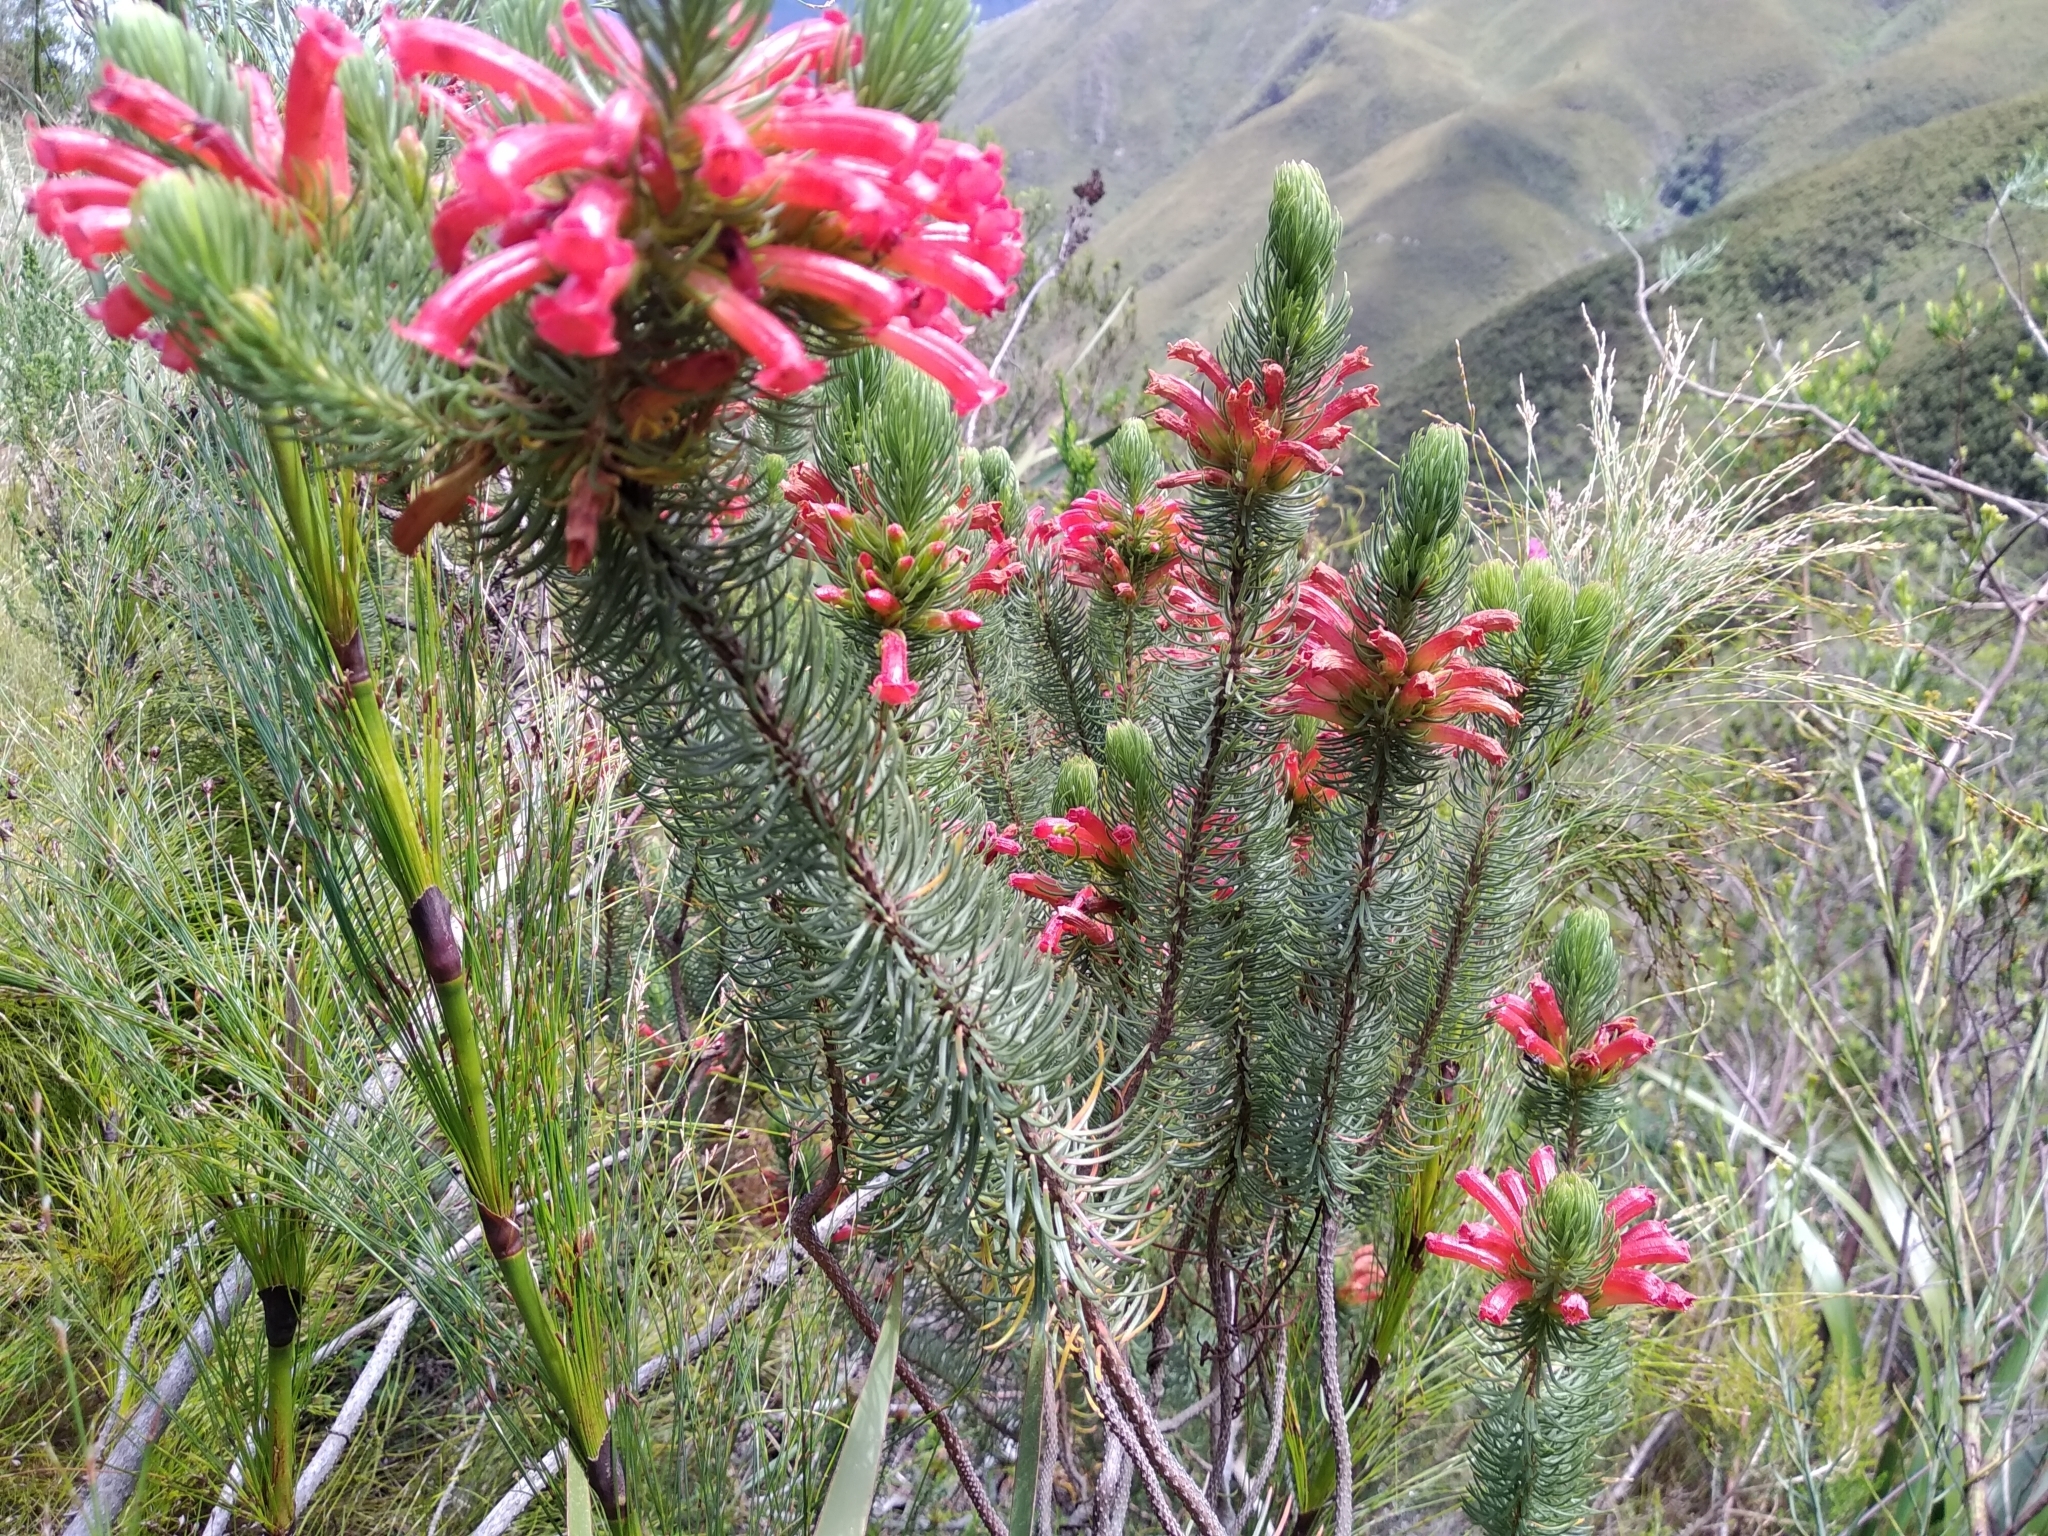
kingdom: Plantae
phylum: Tracheophyta
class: Magnoliopsida
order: Ericales
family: Ericaceae
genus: Erica
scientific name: Erica viscaria
